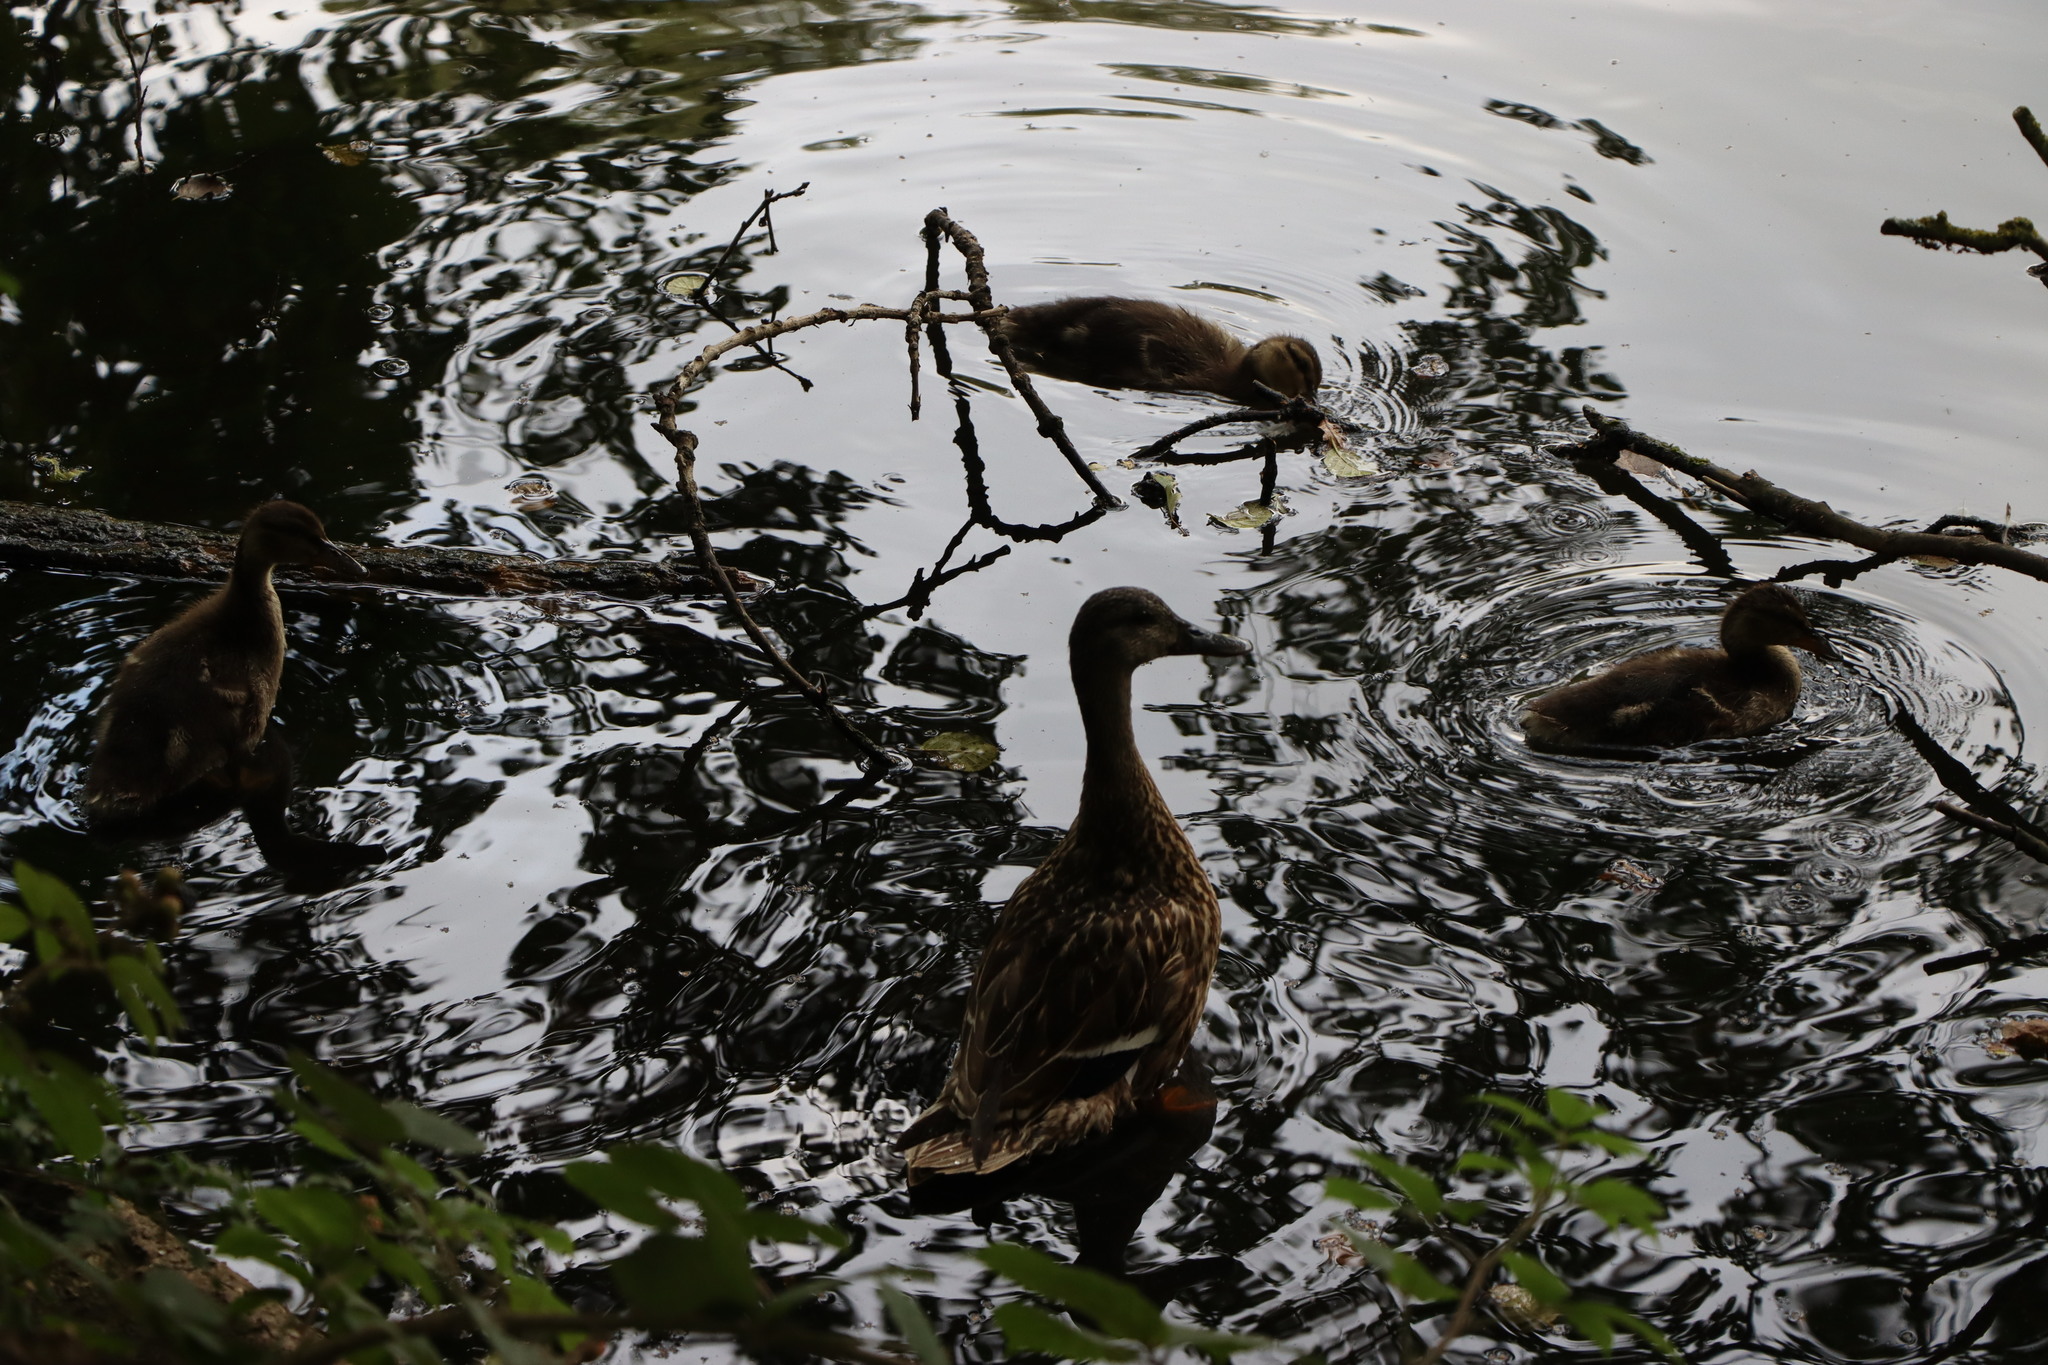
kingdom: Animalia
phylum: Chordata
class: Aves
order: Anseriformes
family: Anatidae
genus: Anas
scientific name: Anas platyrhynchos
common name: Mallard
